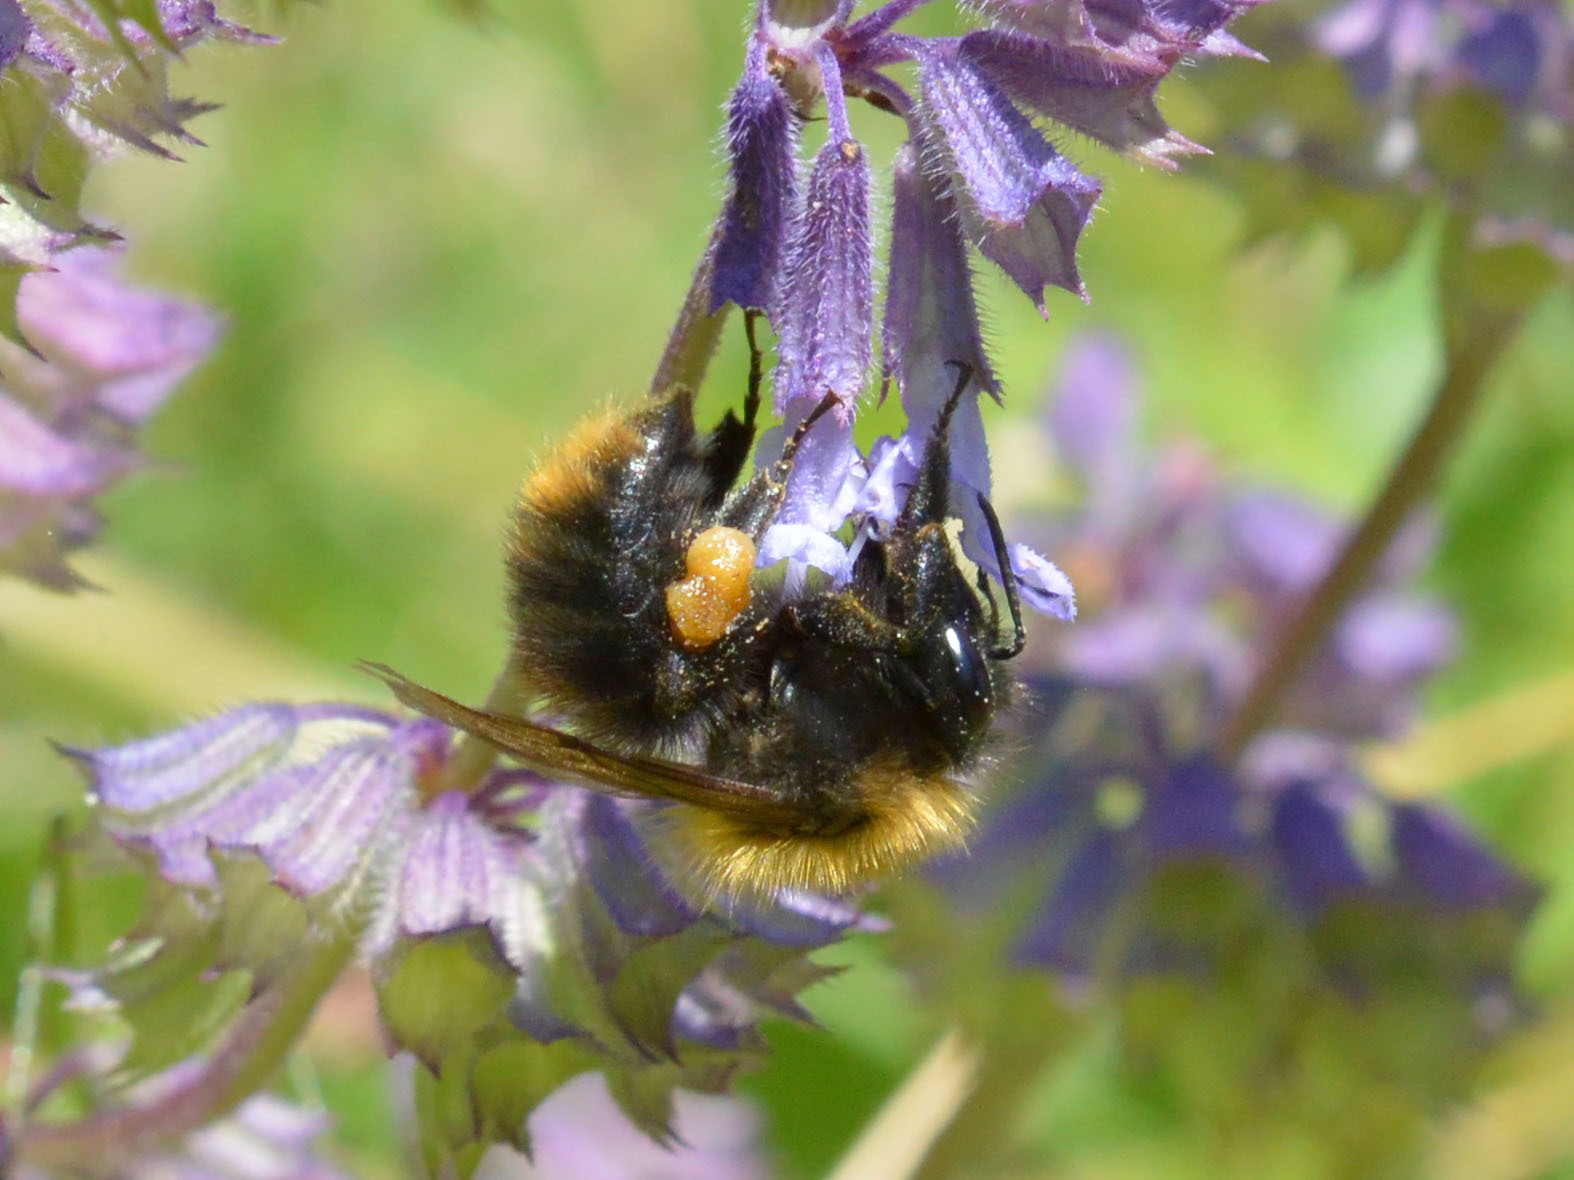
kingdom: Animalia
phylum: Arthropoda
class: Insecta
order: Hymenoptera
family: Apidae
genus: Bombus
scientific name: Bombus pascuorum
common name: Common carder bee
